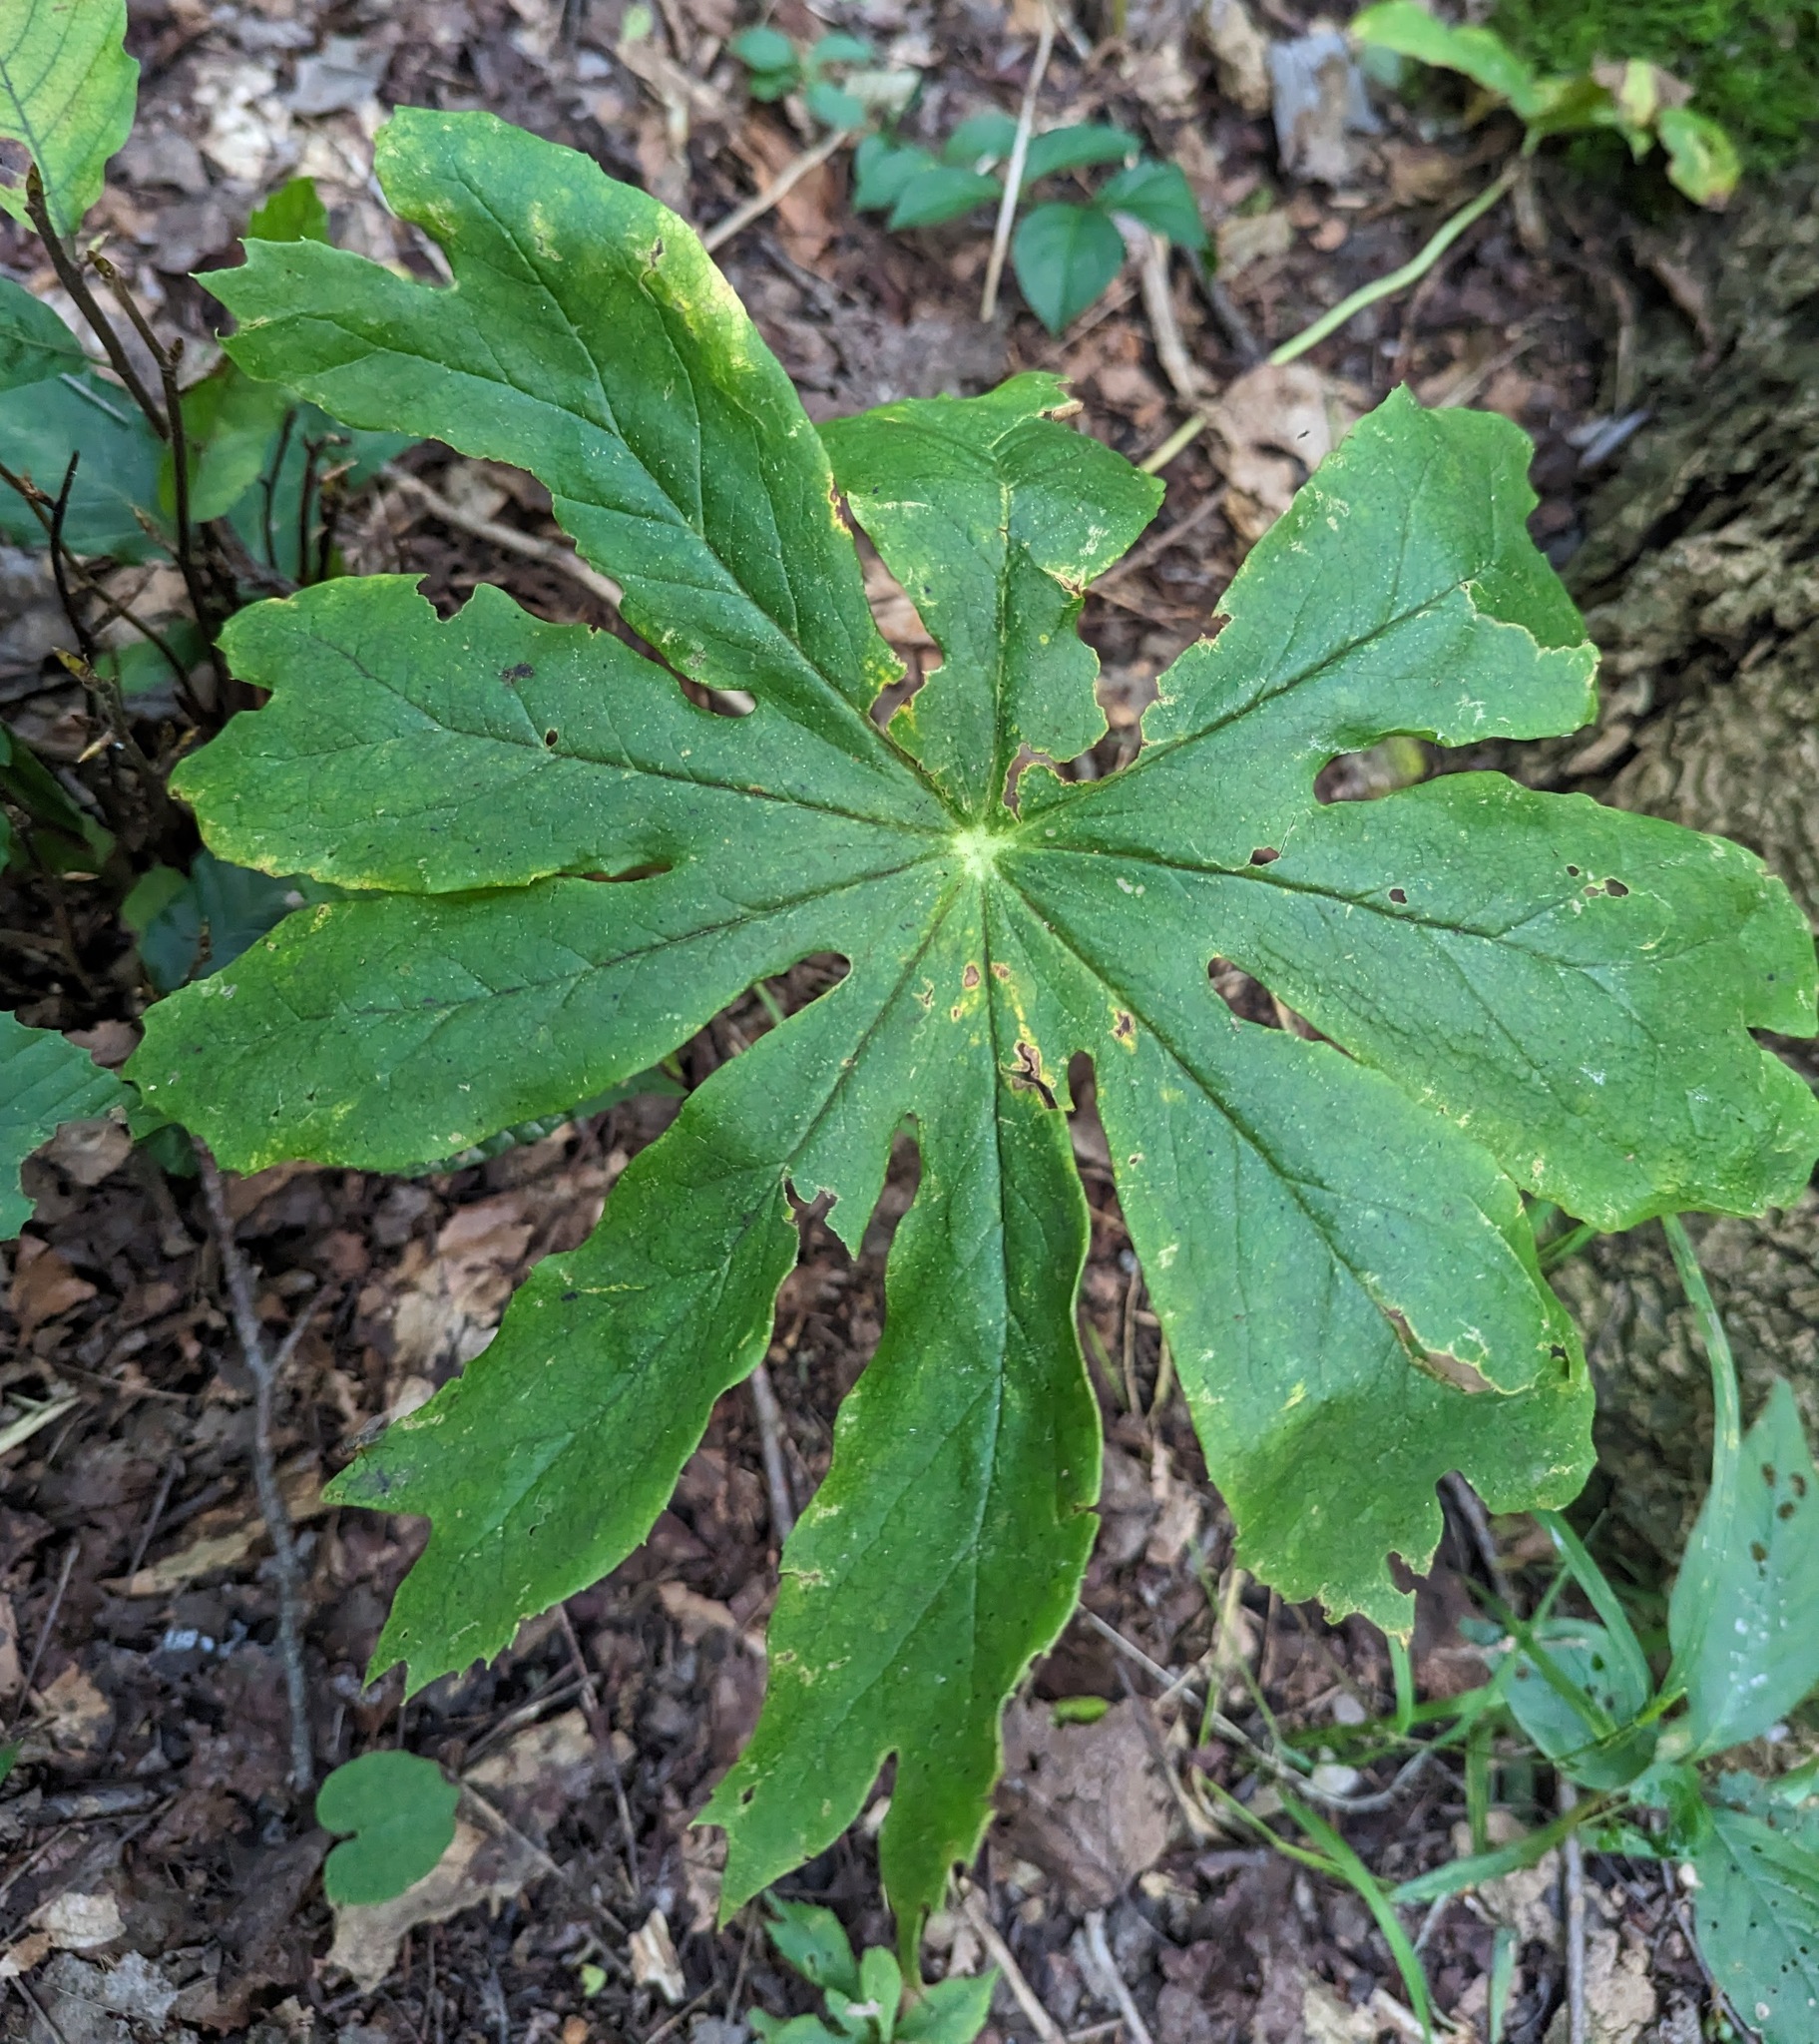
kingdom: Plantae
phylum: Tracheophyta
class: Magnoliopsida
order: Ranunculales
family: Berberidaceae
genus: Podophyllum
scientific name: Podophyllum peltatum
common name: Wild mandrake
